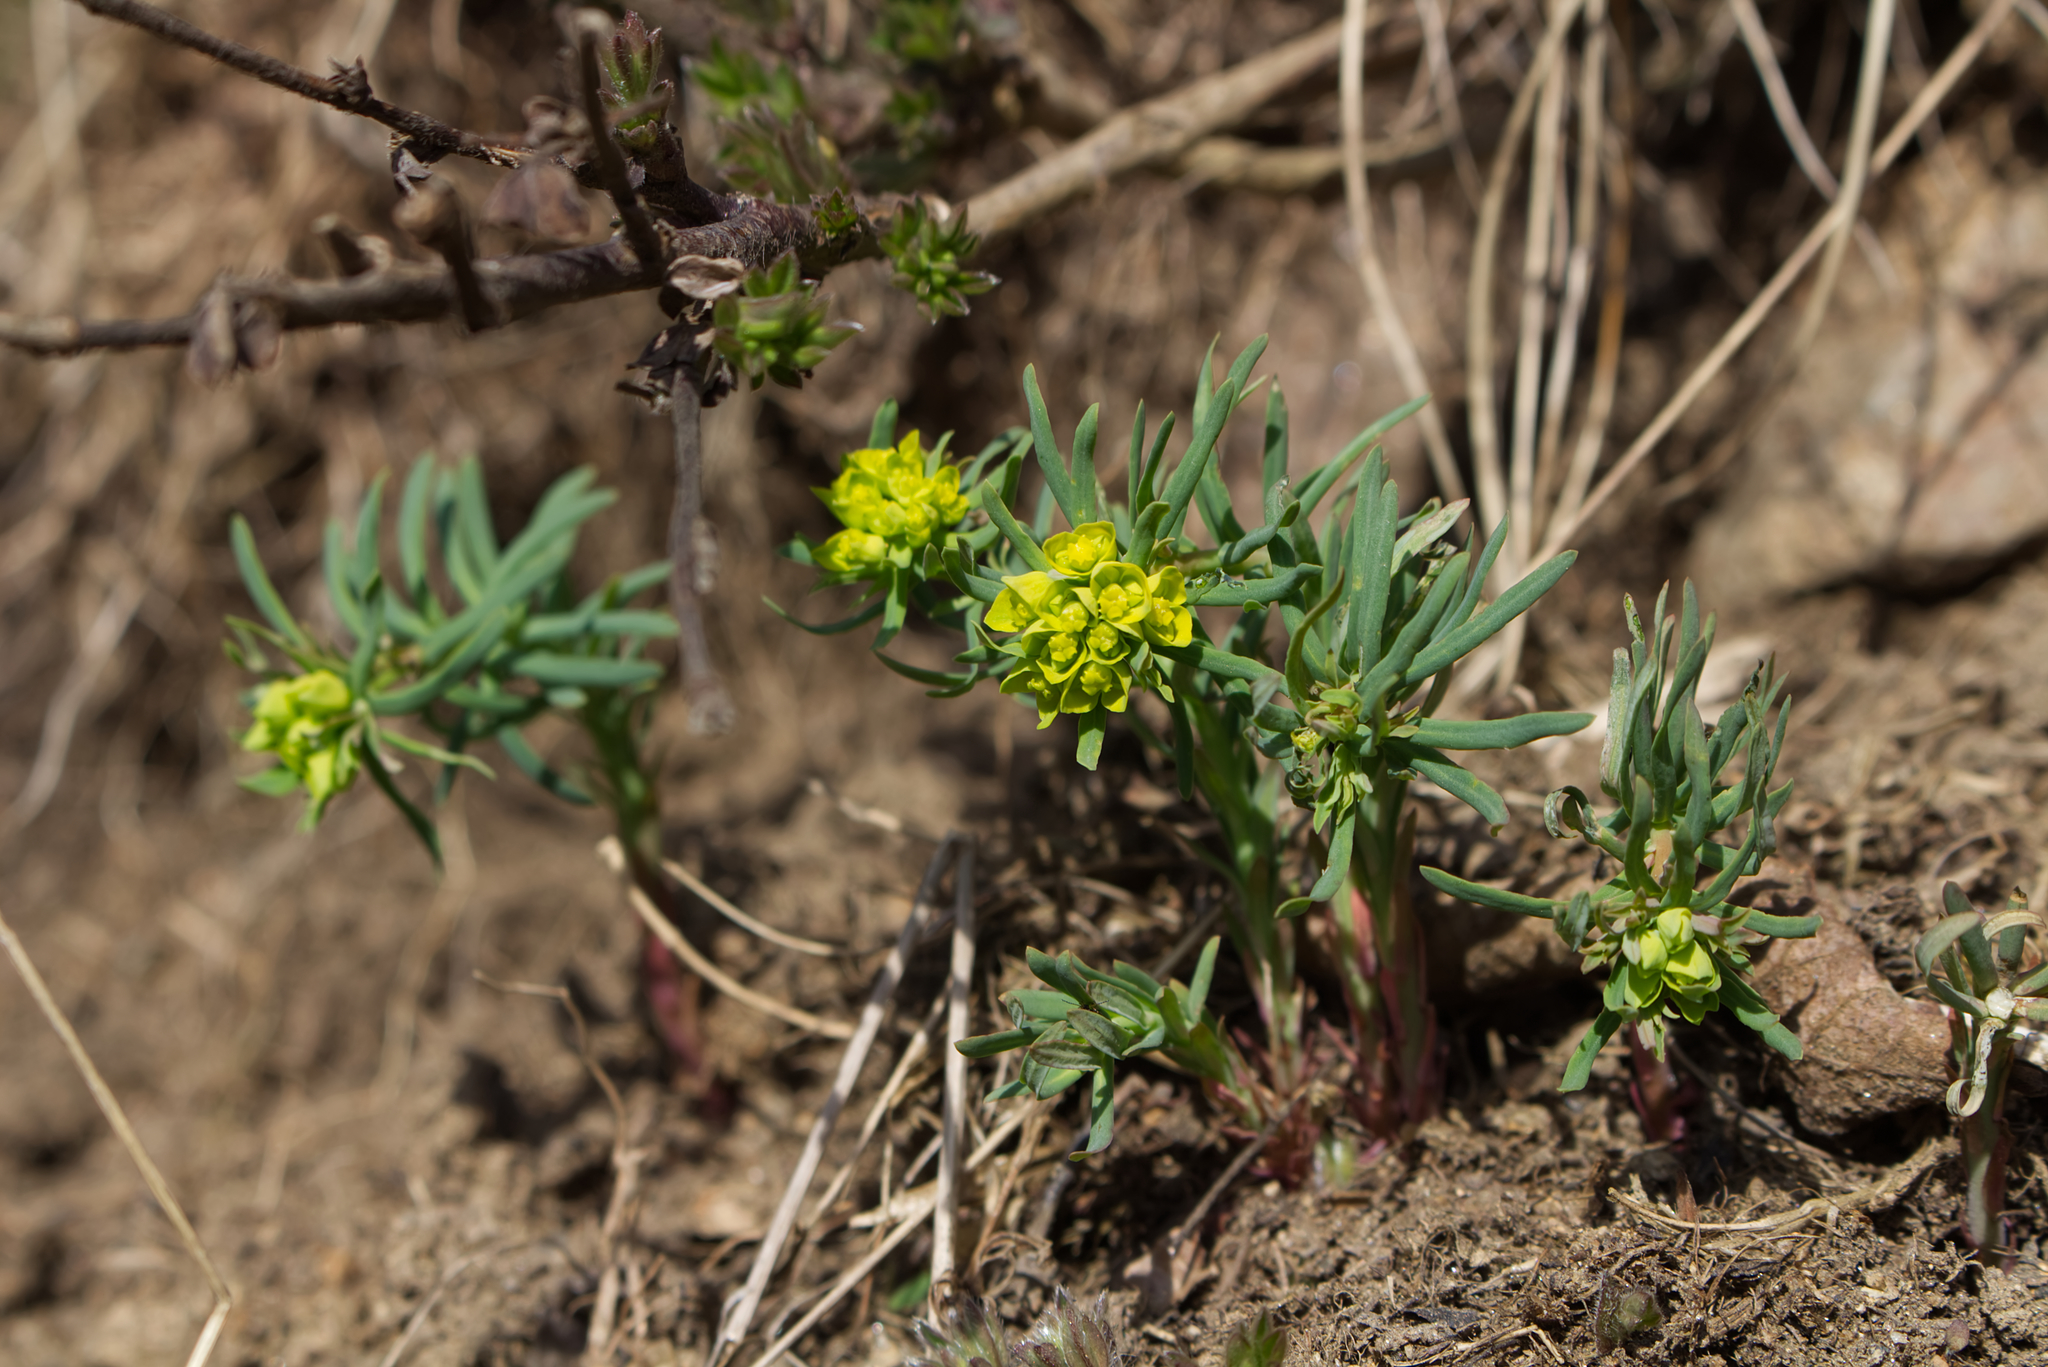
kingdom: Plantae
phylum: Tracheophyta
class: Magnoliopsida
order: Malpighiales
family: Euphorbiaceae
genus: Euphorbia
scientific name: Euphorbia cyparissias
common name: Cypress spurge
